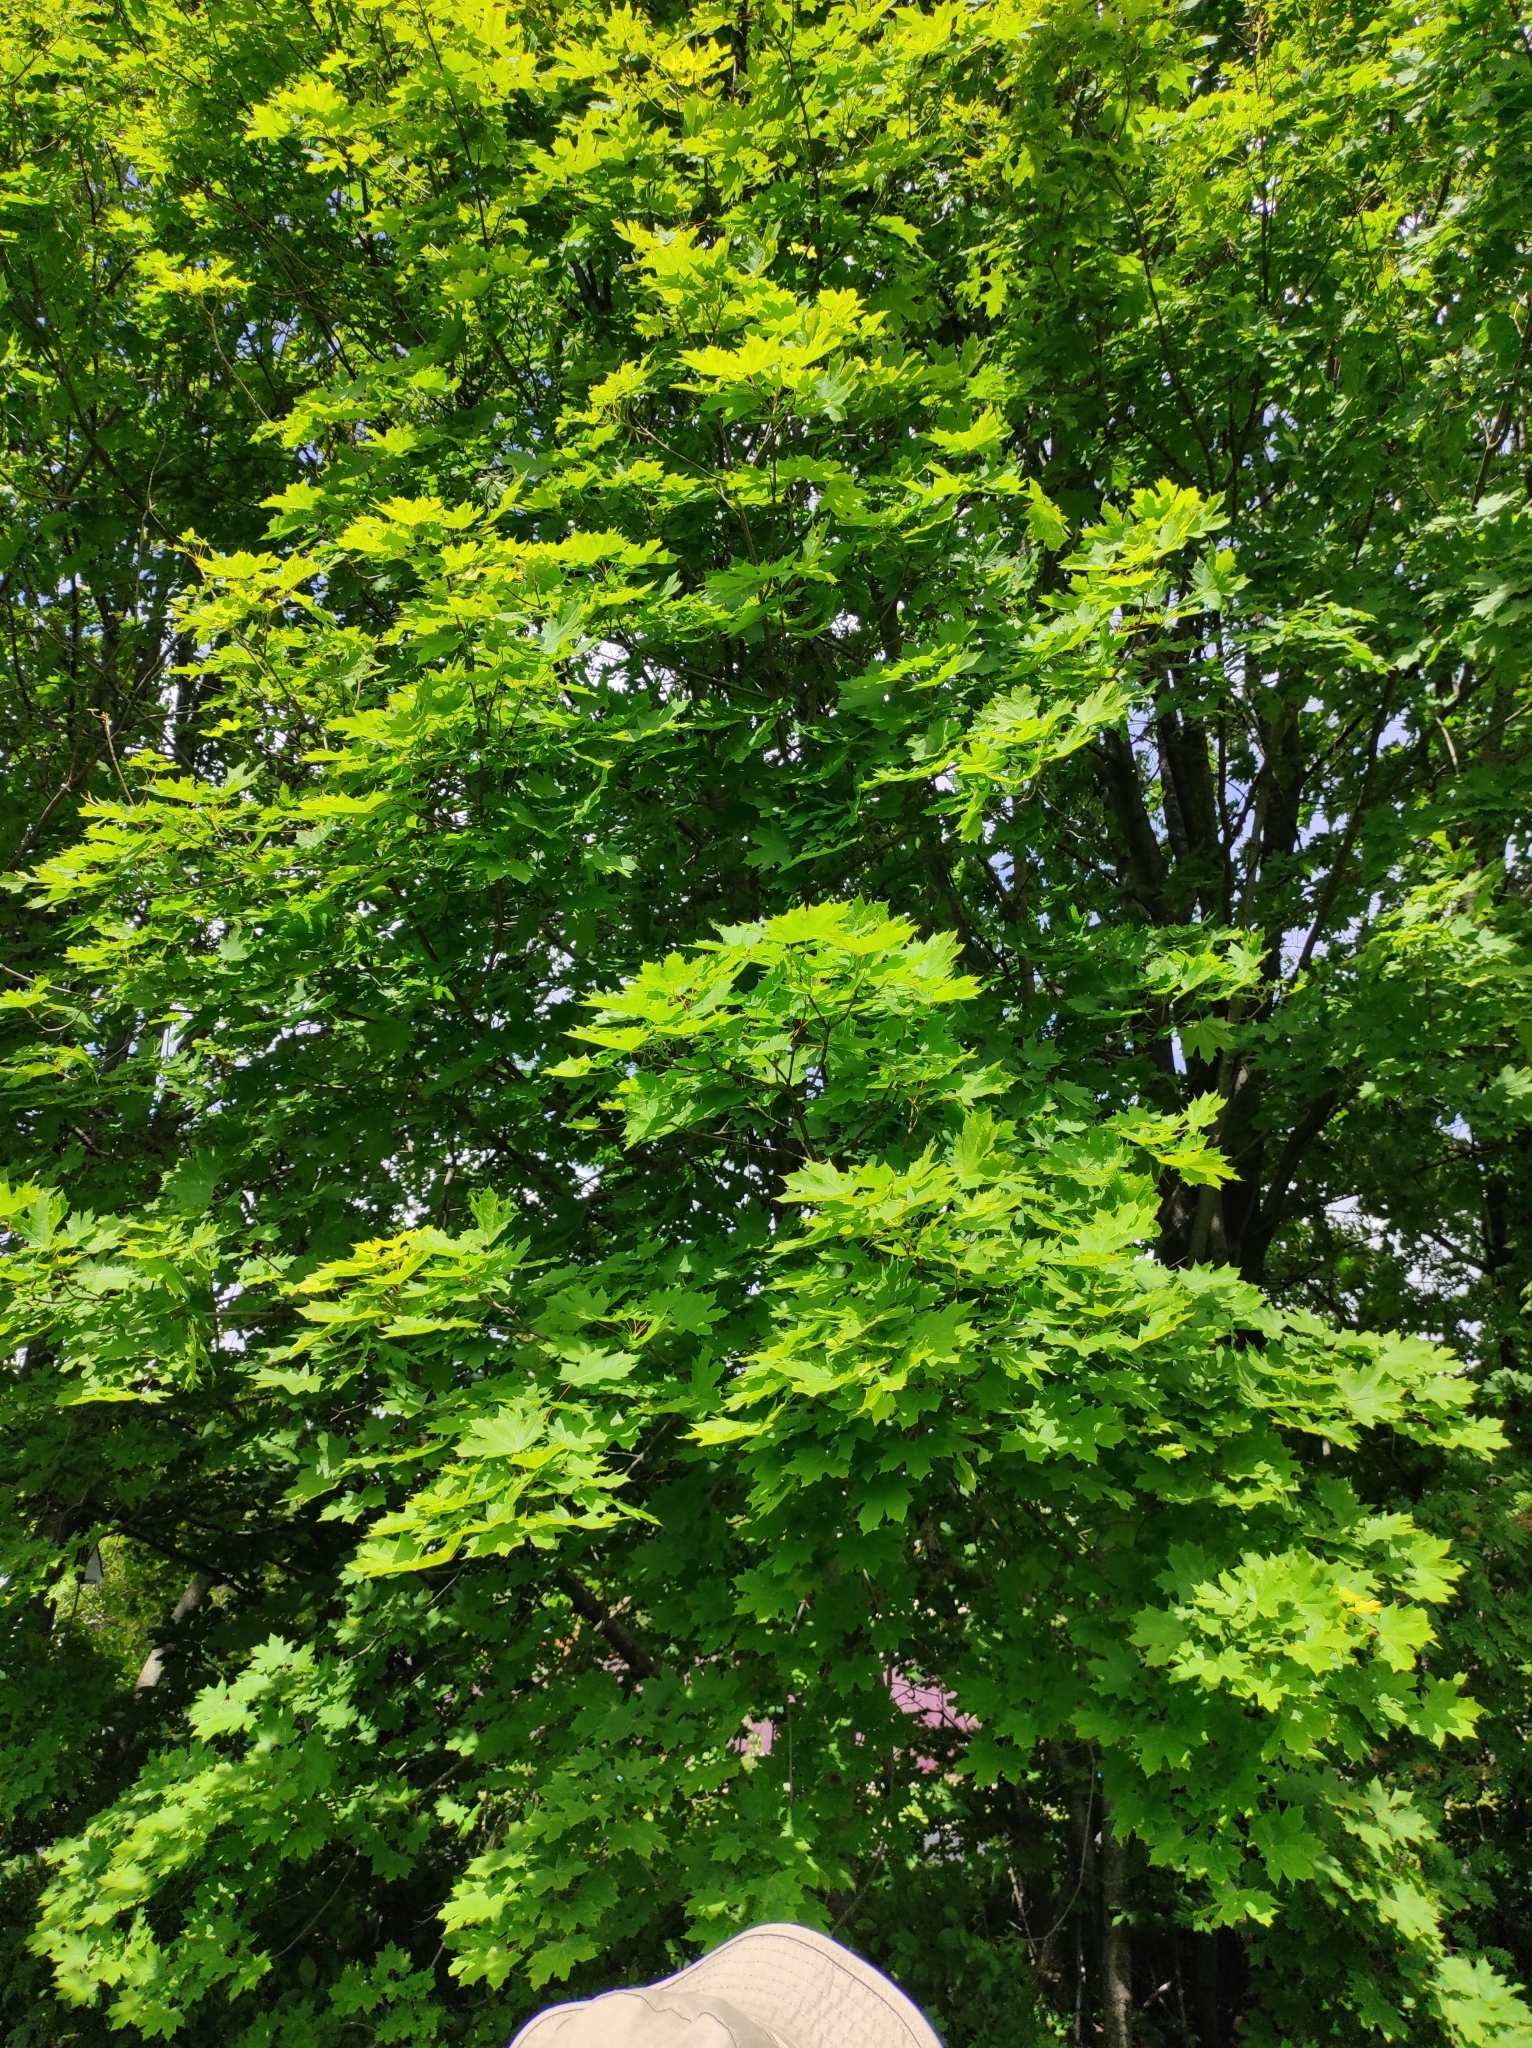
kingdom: Plantae
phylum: Tracheophyta
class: Magnoliopsida
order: Sapindales
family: Sapindaceae
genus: Acer
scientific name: Acer platanoides
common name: Norway maple
